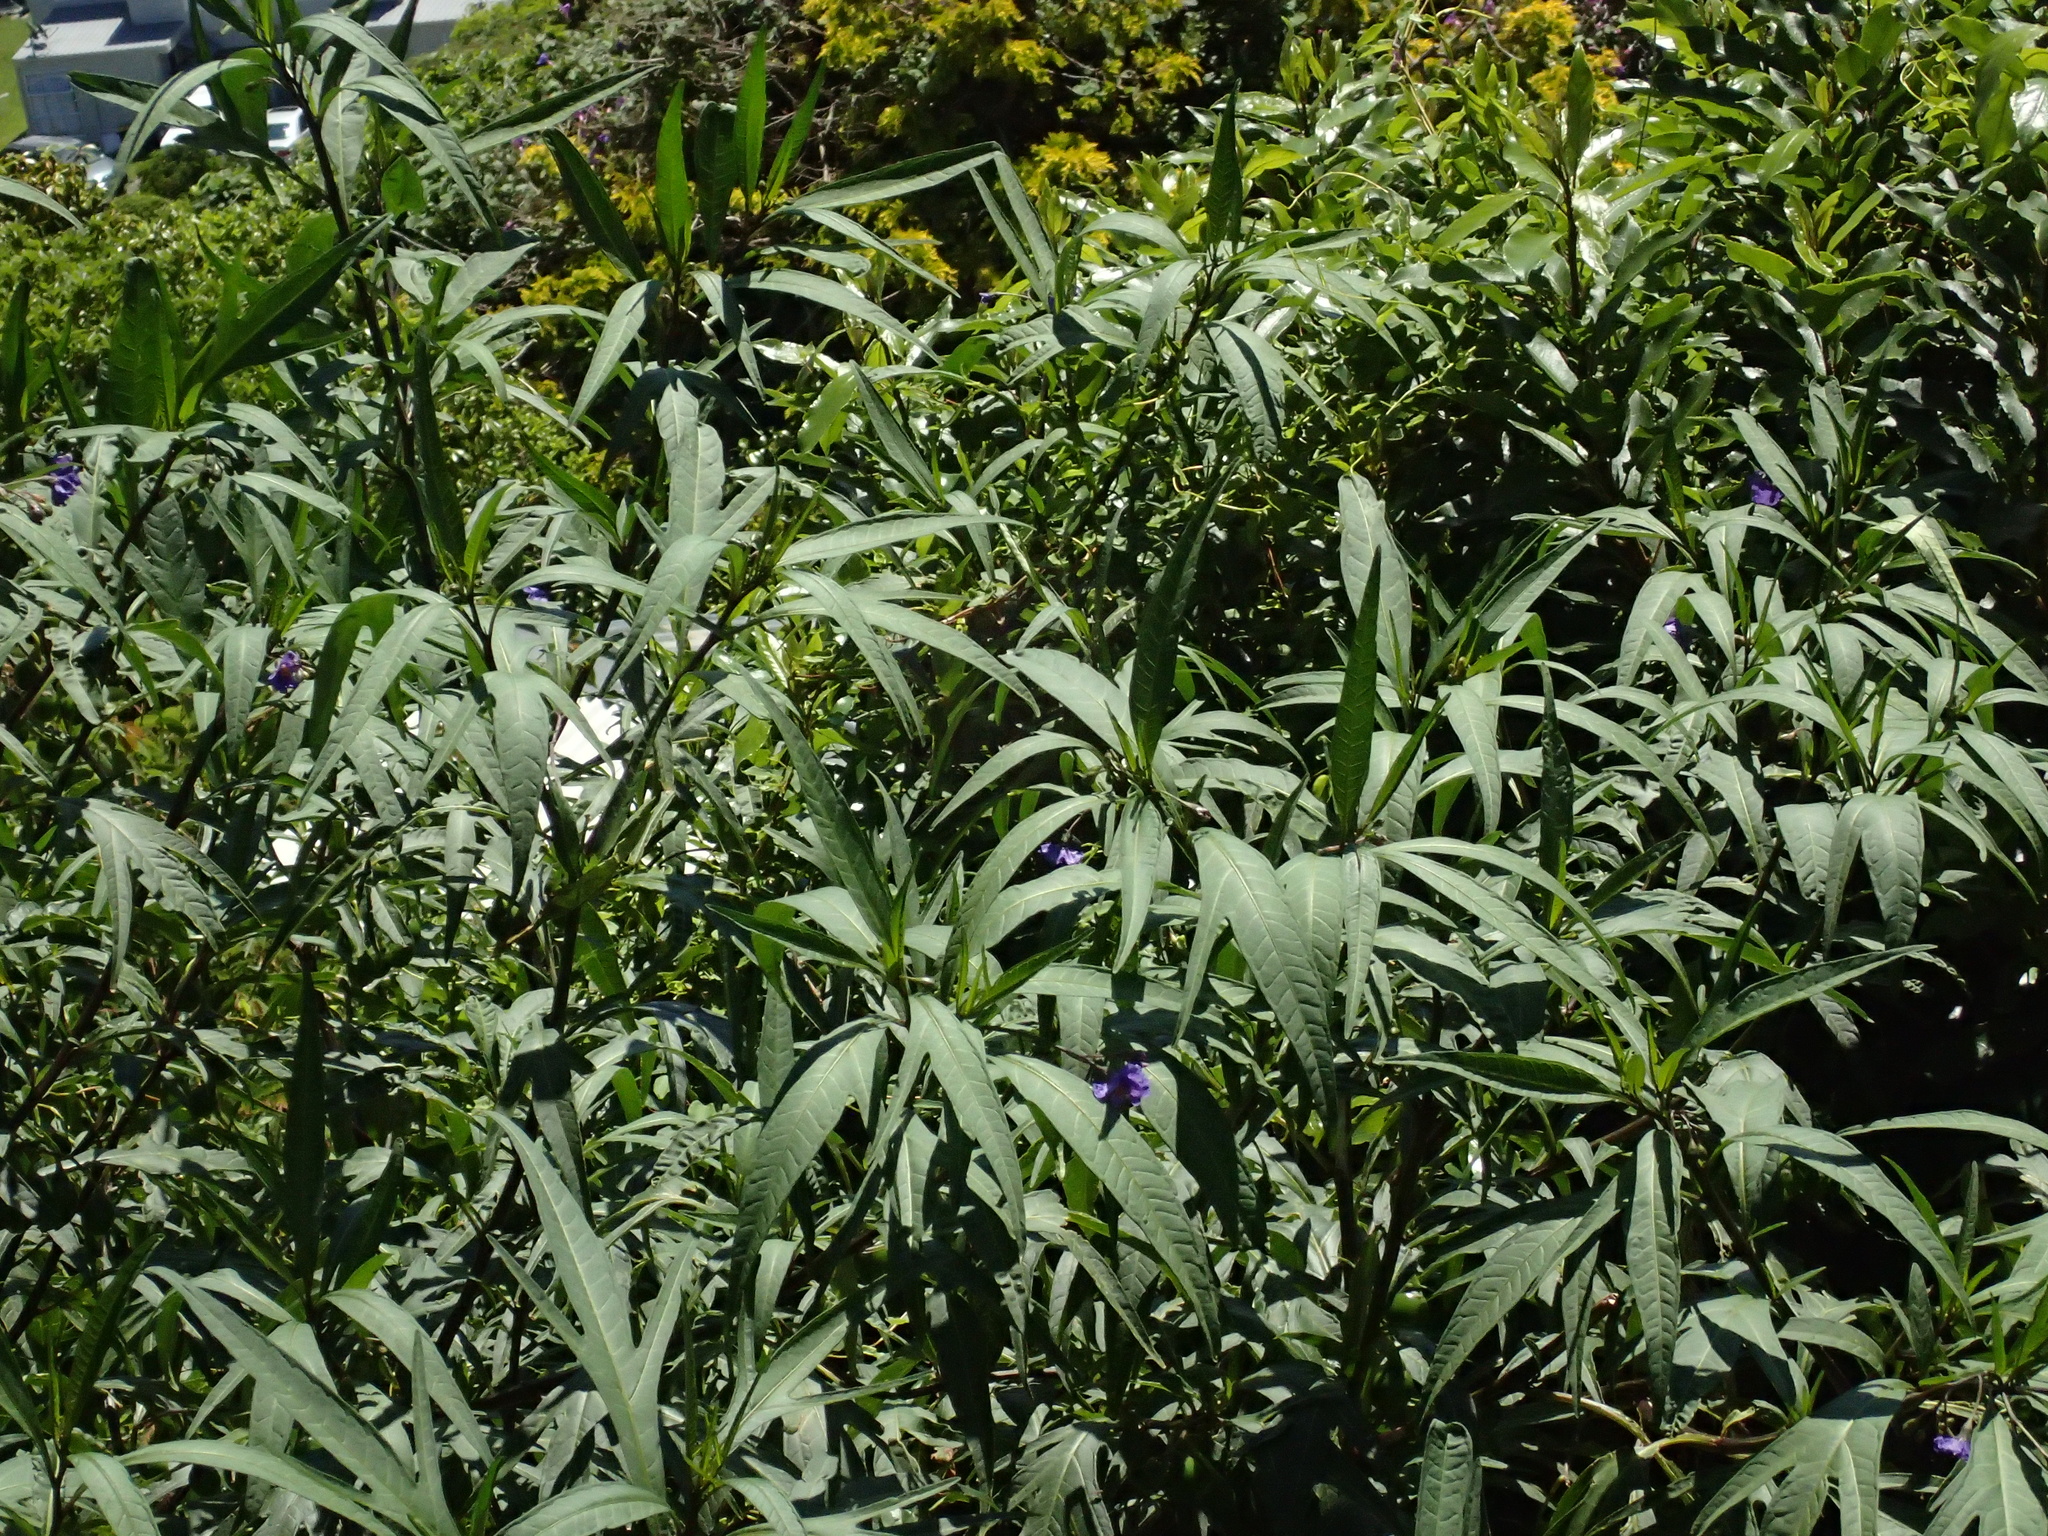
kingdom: Plantae
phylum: Tracheophyta
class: Magnoliopsida
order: Solanales
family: Solanaceae
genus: Solanum
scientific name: Solanum laciniatum
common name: Kangaroo-apple
